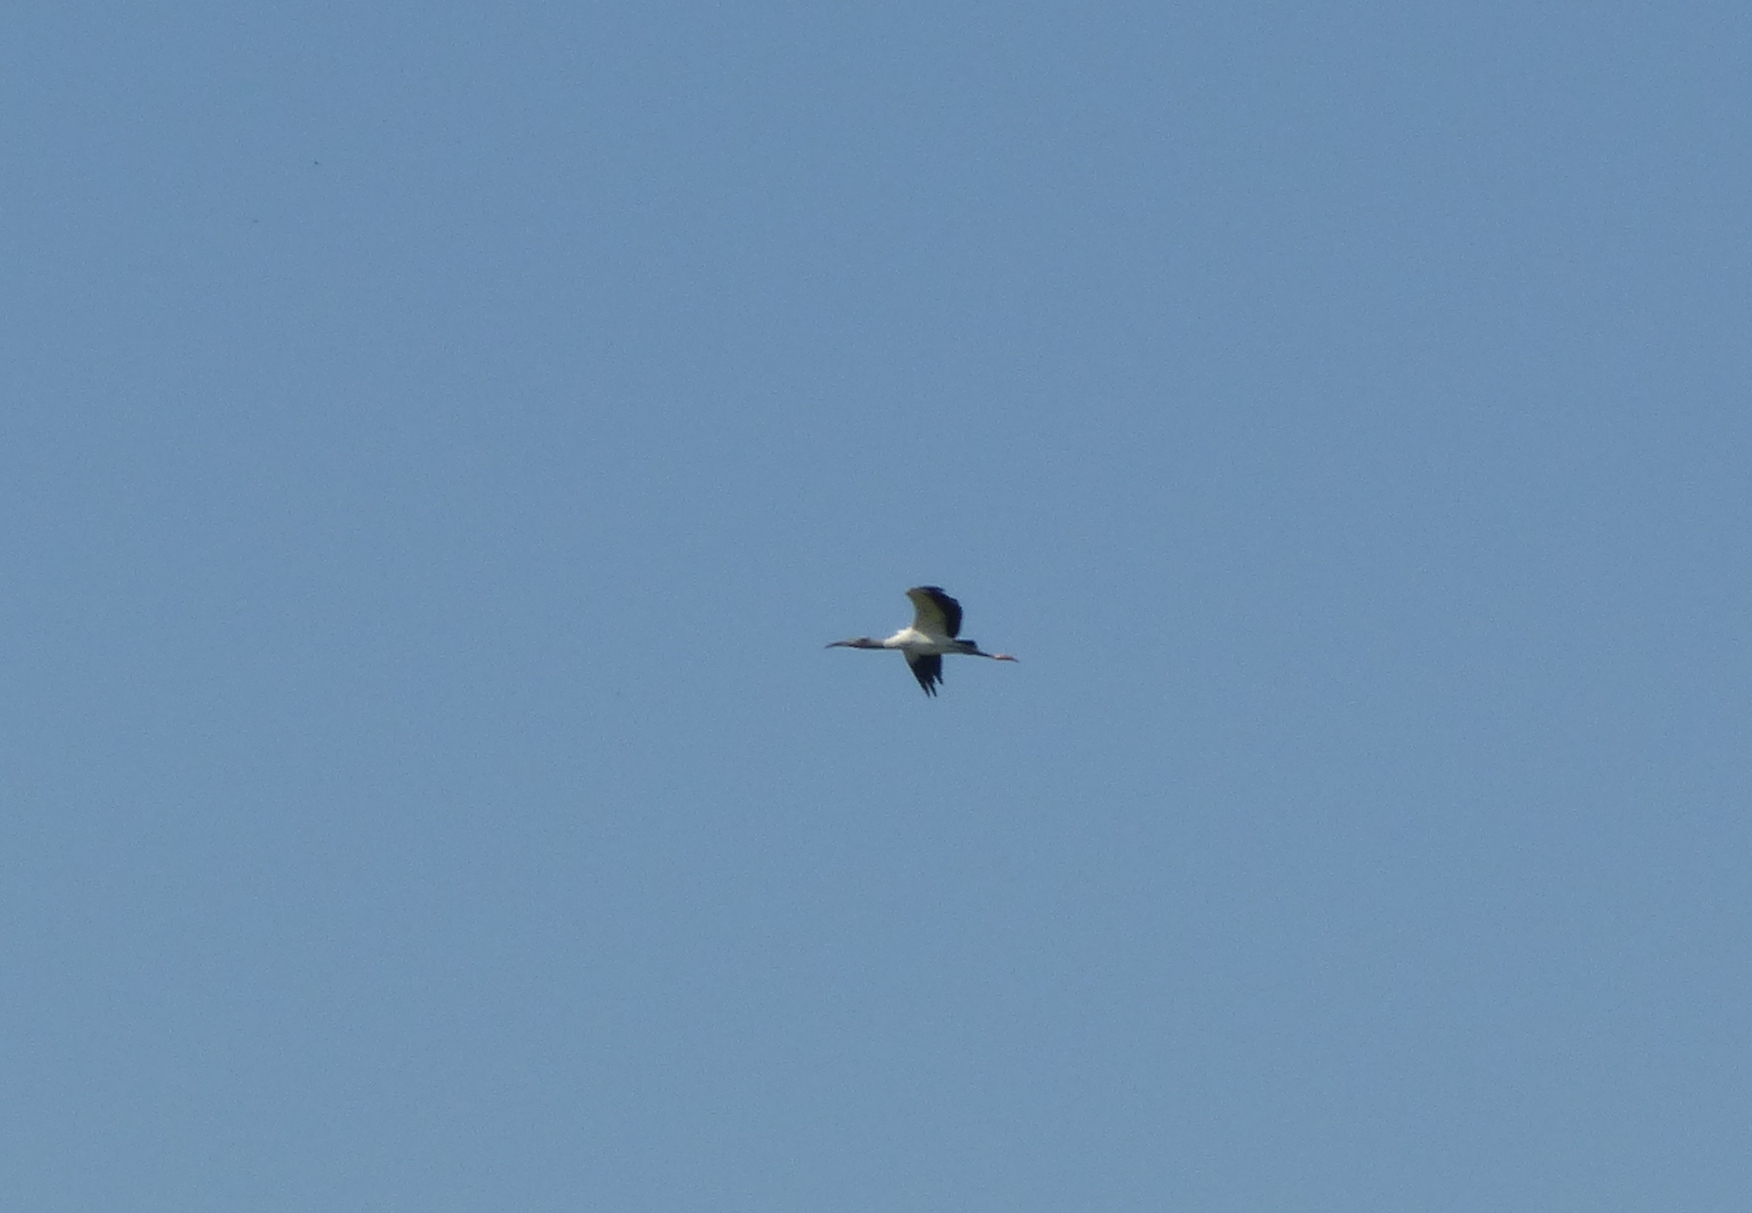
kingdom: Animalia
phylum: Chordata
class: Aves
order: Ciconiiformes
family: Ciconiidae
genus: Mycteria
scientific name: Mycteria americana
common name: Wood stork
